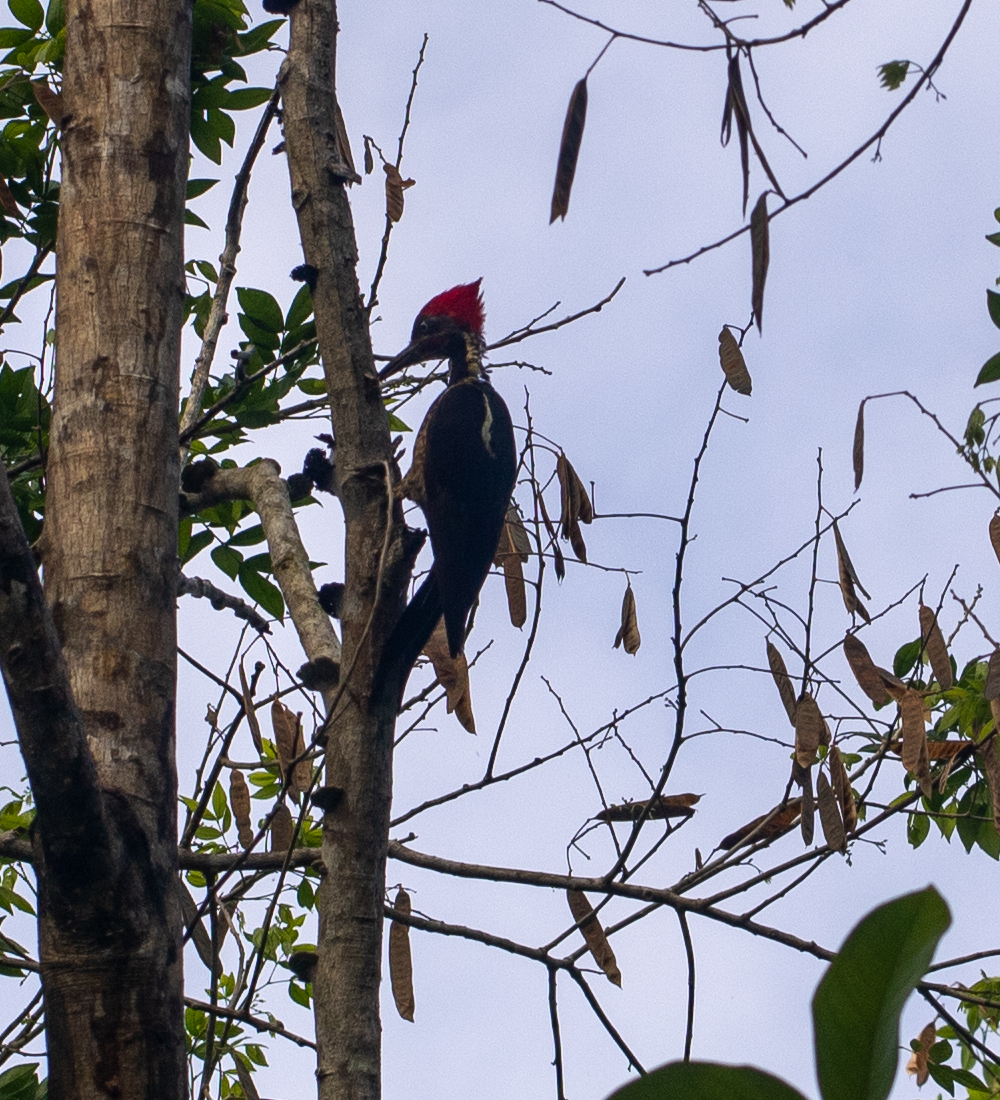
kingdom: Animalia
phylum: Chordata
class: Aves
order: Piciformes
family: Picidae
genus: Dryocopus
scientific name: Dryocopus lineatus
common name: Lineated woodpecker
